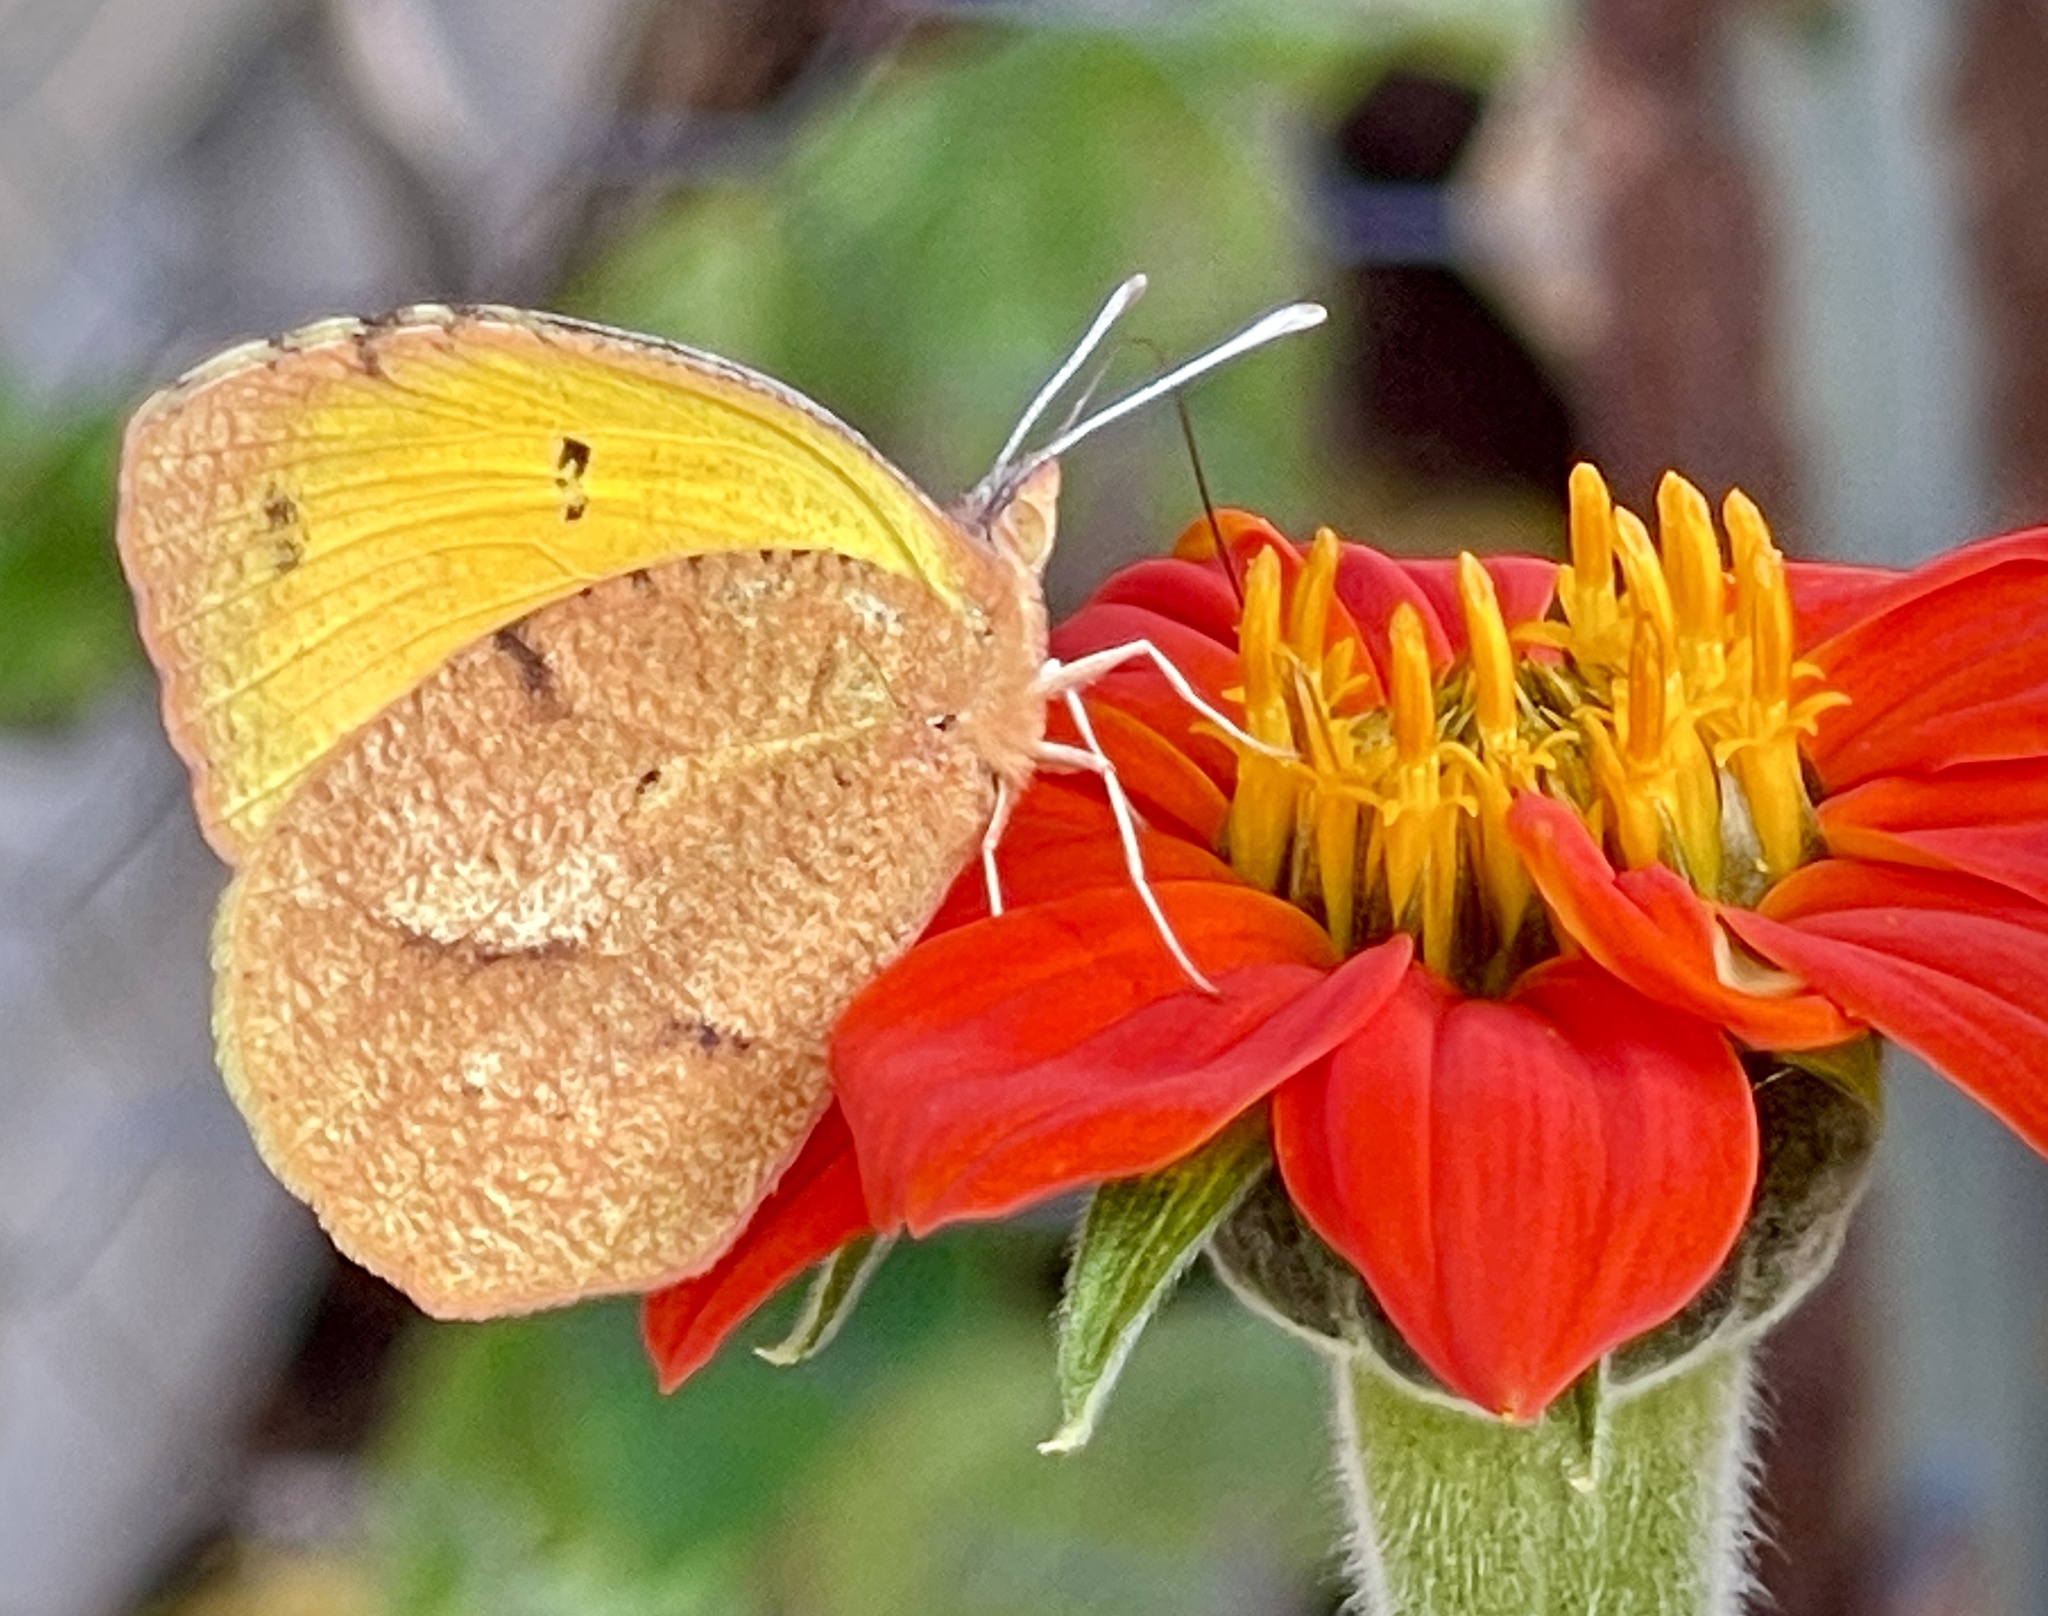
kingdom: Animalia
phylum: Arthropoda
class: Insecta
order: Lepidoptera
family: Pieridae
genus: Abaeis
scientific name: Abaeis nicippe
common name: Sleepy orange
